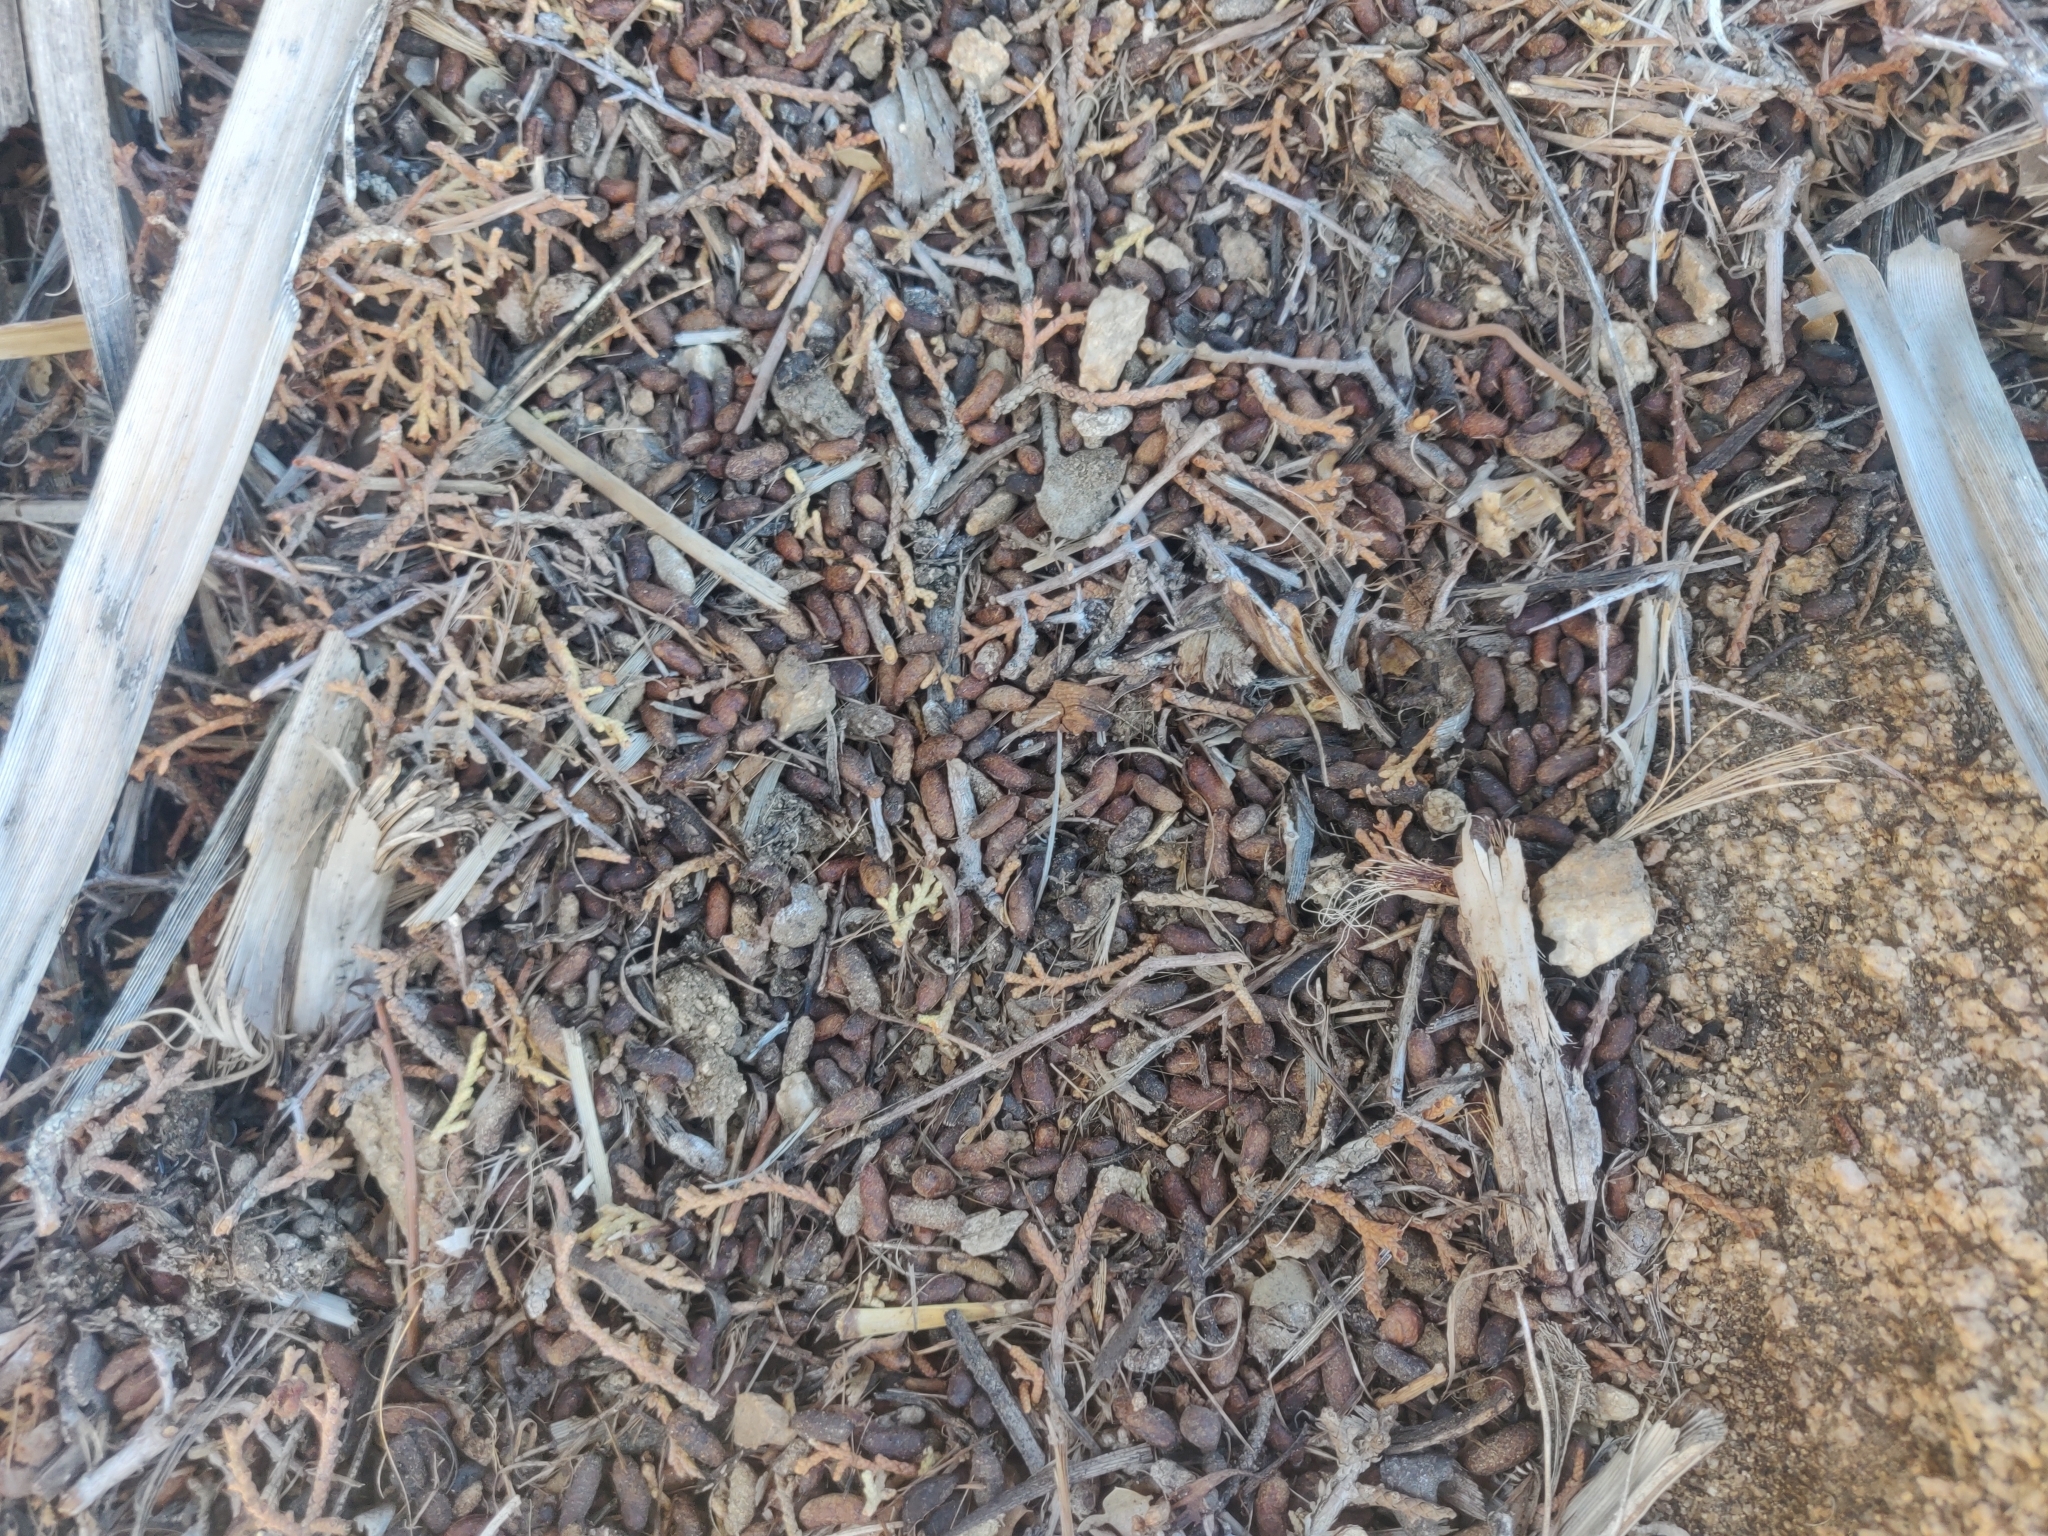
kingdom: Animalia
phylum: Chordata
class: Mammalia
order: Rodentia
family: Cricetidae
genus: Neotoma
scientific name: Neotoma lepida
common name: Desert woodrat
